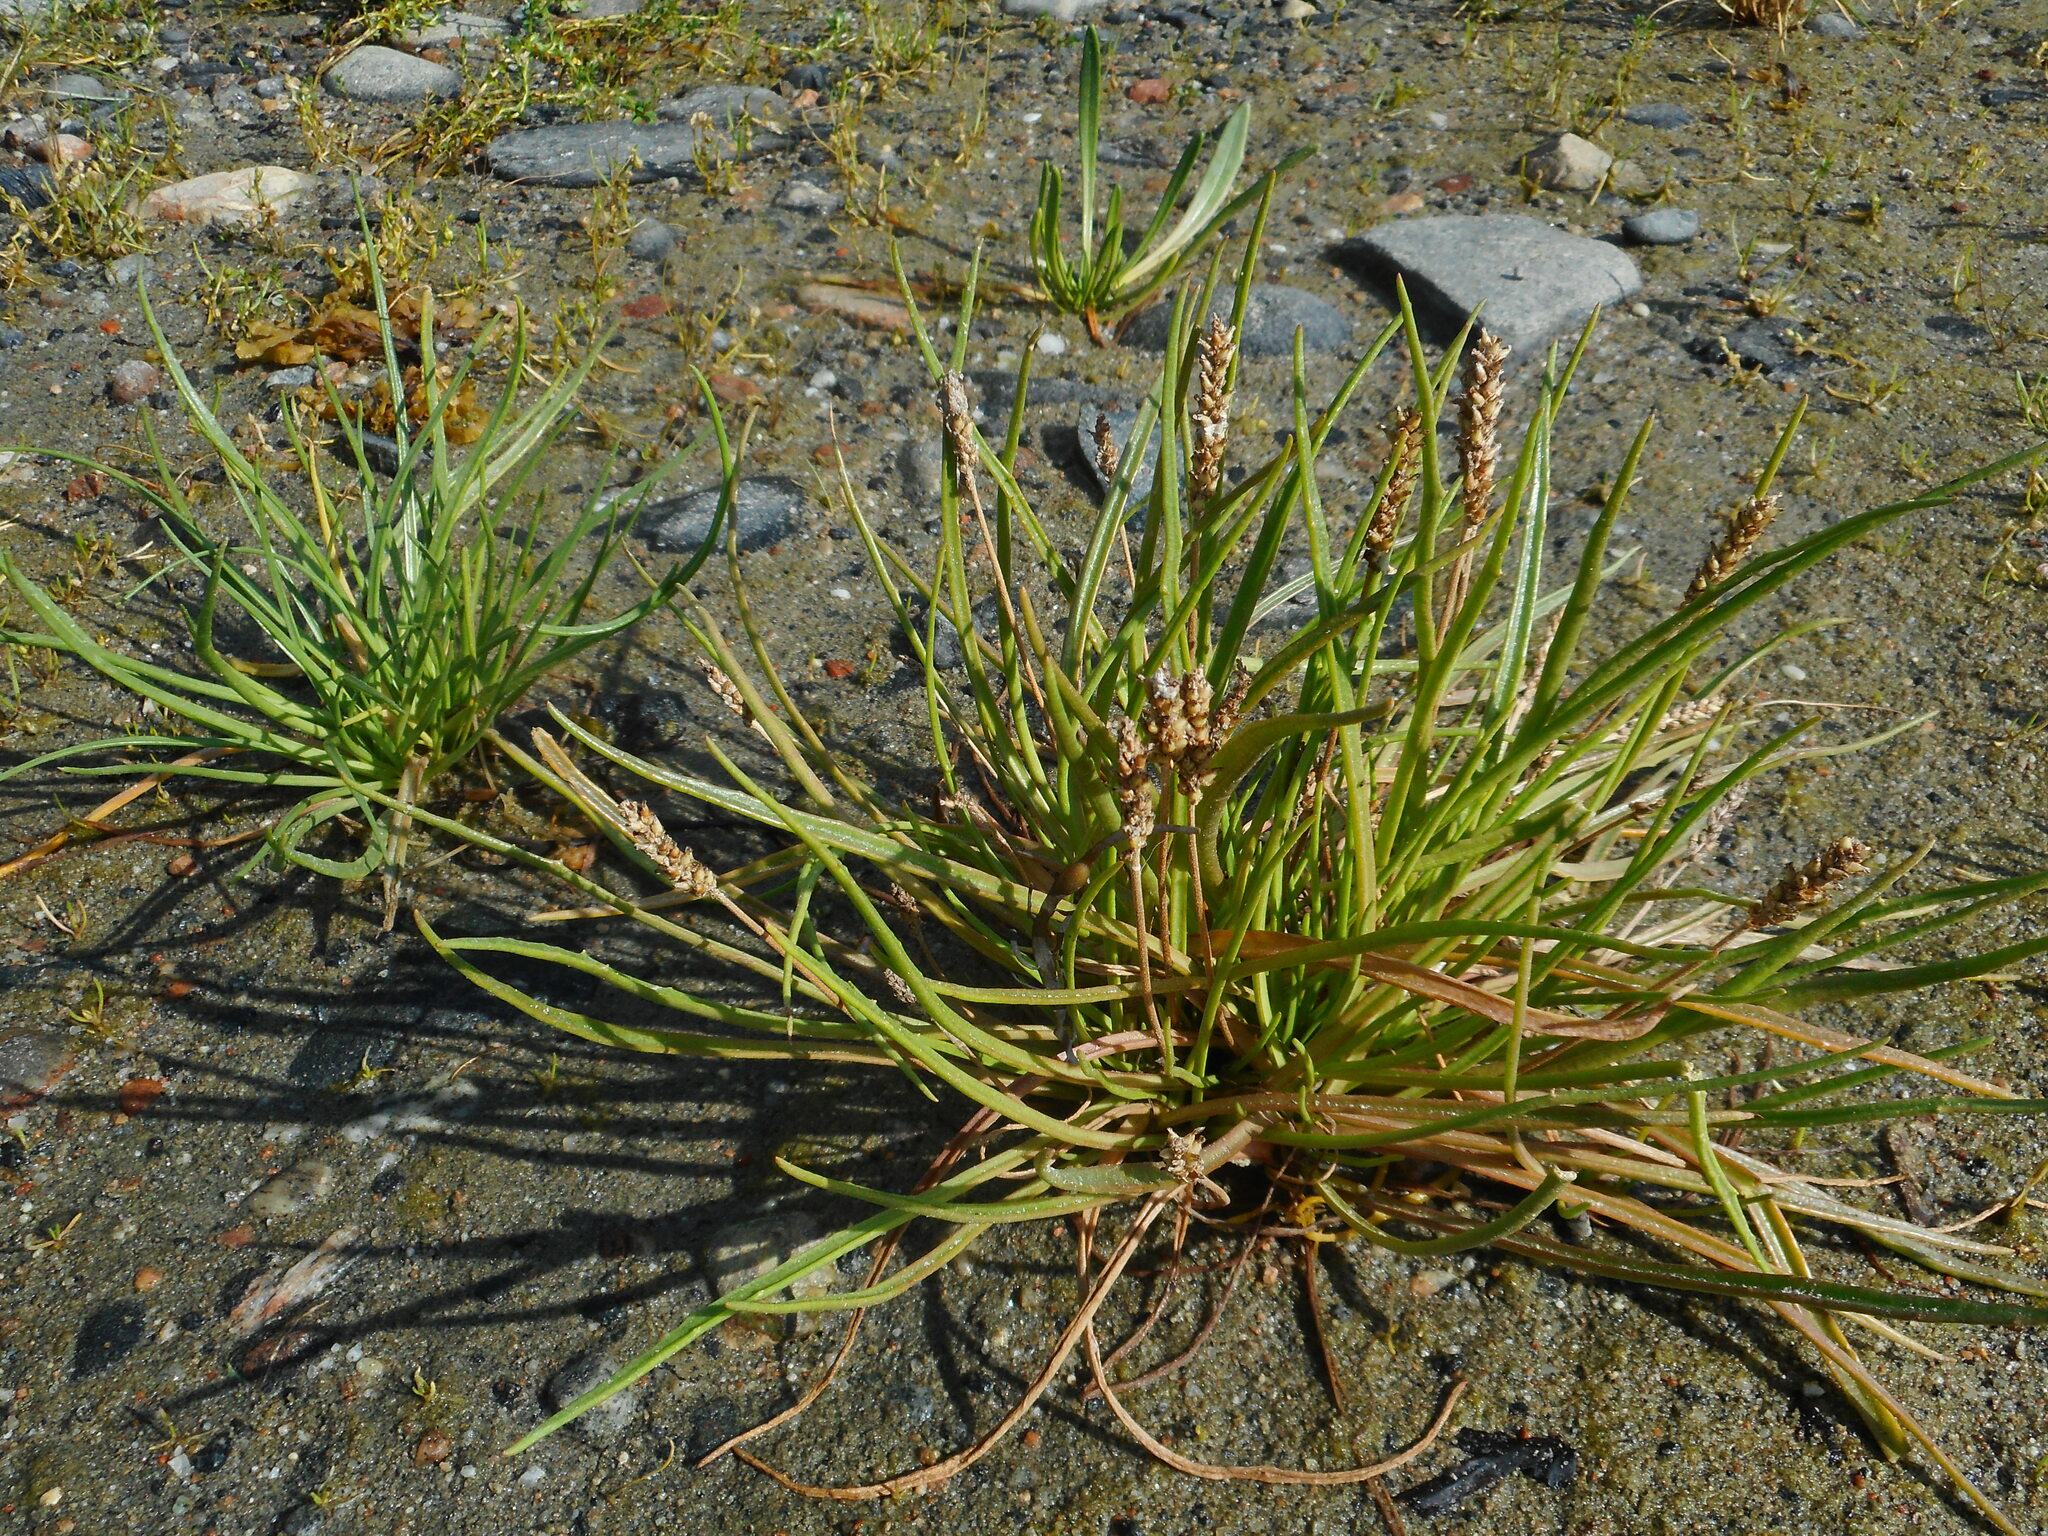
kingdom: Plantae
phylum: Tracheophyta
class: Magnoliopsida
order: Lamiales
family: Plantaginaceae
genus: Plantago
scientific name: Plantago maritima
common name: Sea plantain
